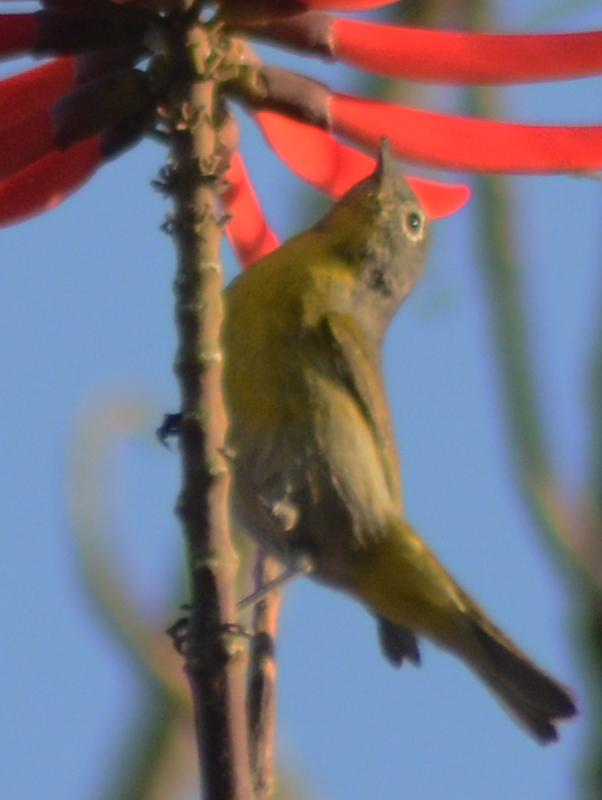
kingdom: Animalia
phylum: Chordata
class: Aves
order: Passeriformes
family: Parulidae
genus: Leiothlypis
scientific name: Leiothlypis ruficapilla
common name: Nashville warbler
